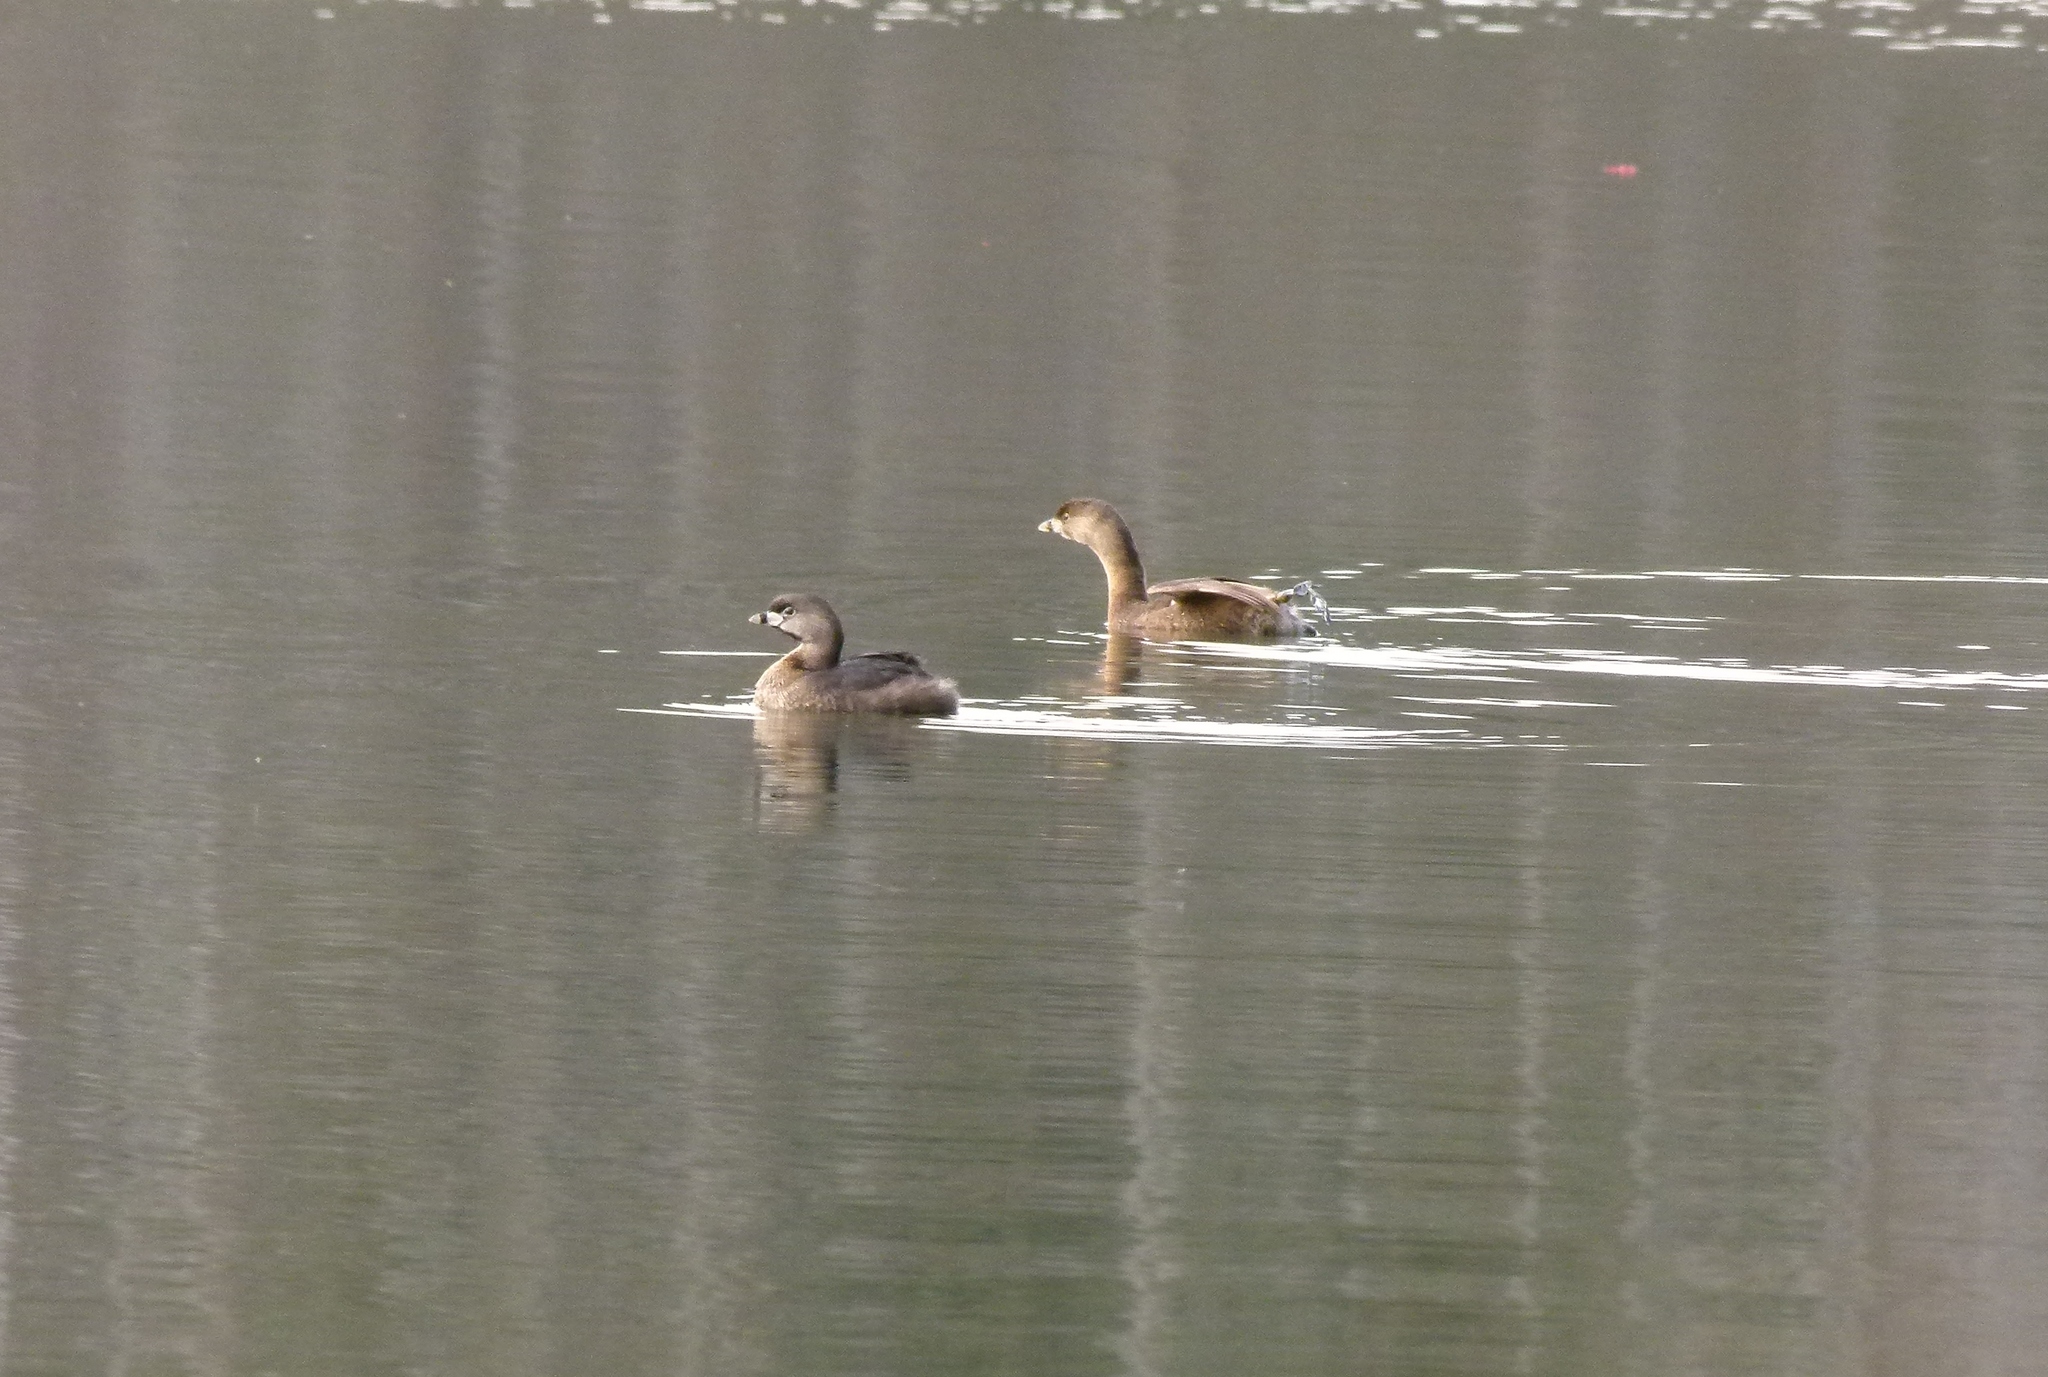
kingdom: Animalia
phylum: Chordata
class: Aves
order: Podicipediformes
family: Podicipedidae
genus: Podilymbus
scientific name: Podilymbus podiceps
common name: Pied-billed grebe
